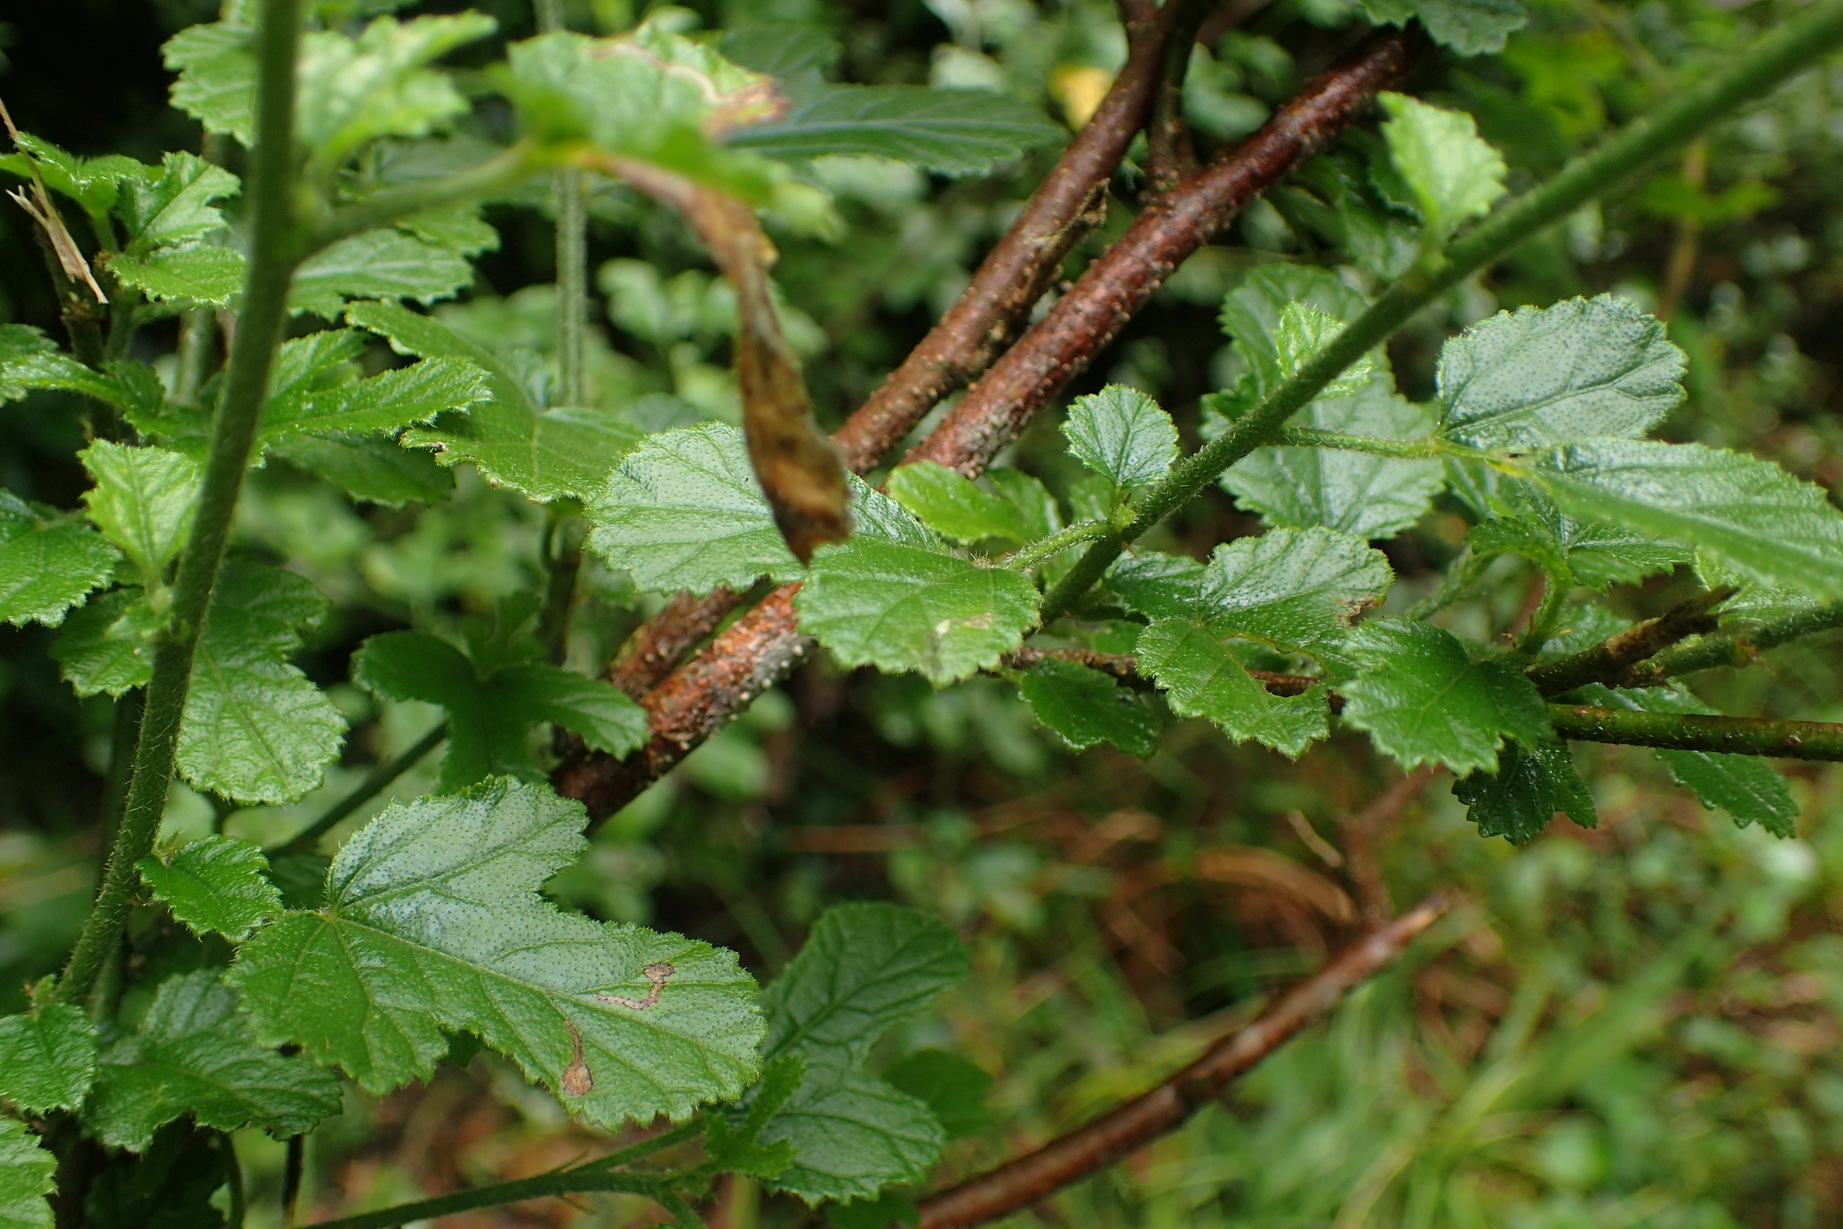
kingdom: Plantae
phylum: Tracheophyta
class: Magnoliopsida
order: Malvales
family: Malvaceae
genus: Hibiscus
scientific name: Hibiscus pedunculatus
